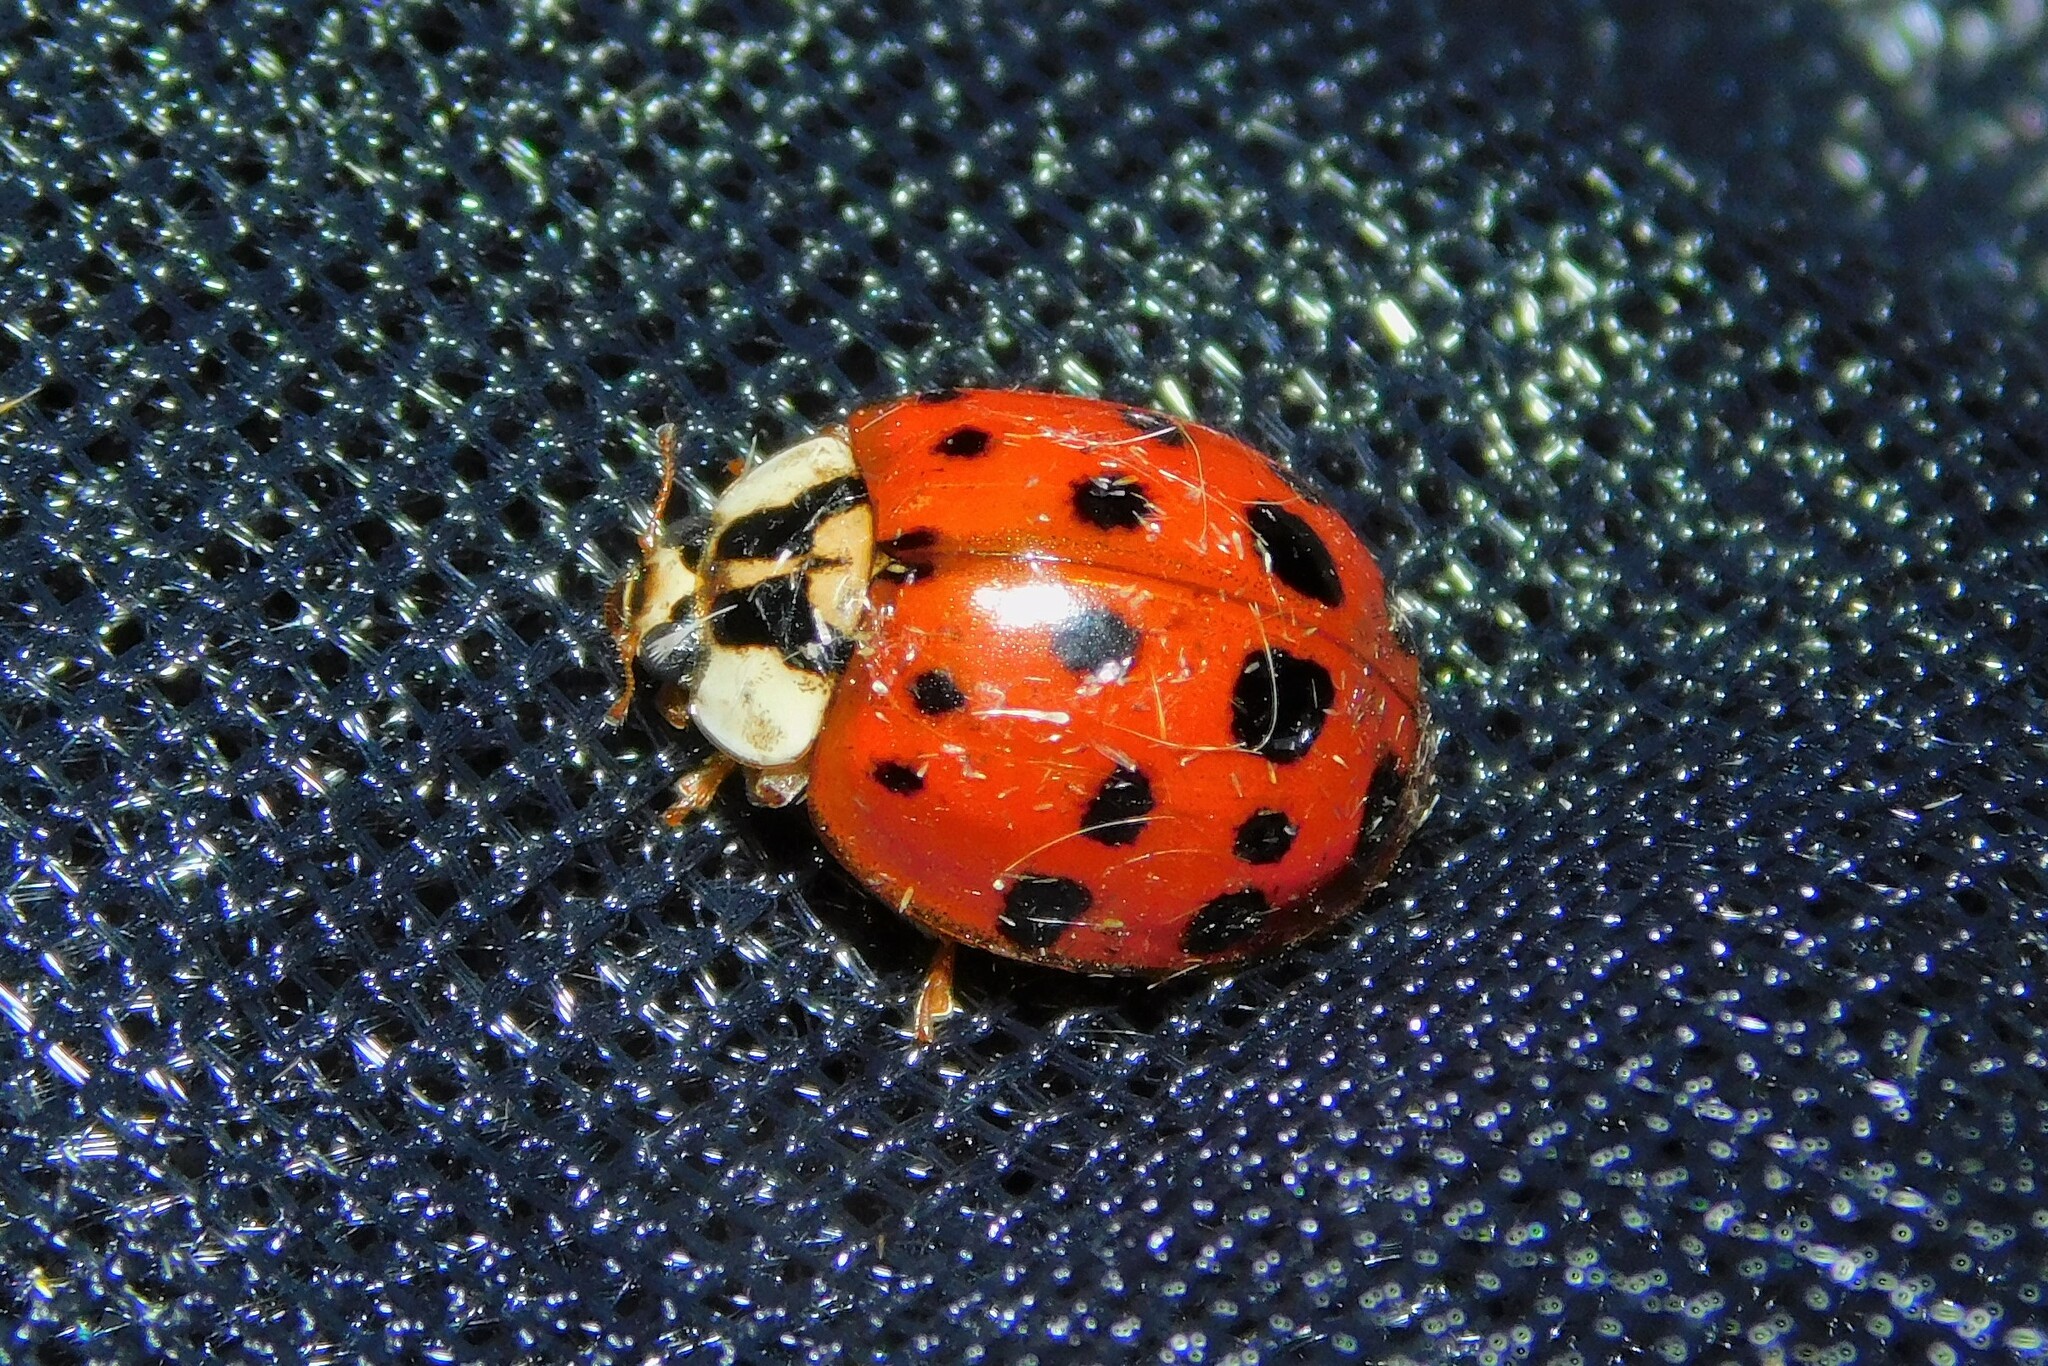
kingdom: Animalia
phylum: Arthropoda
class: Insecta
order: Coleoptera
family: Coccinellidae
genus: Harmonia
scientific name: Harmonia axyridis
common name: Harlequin ladybird
